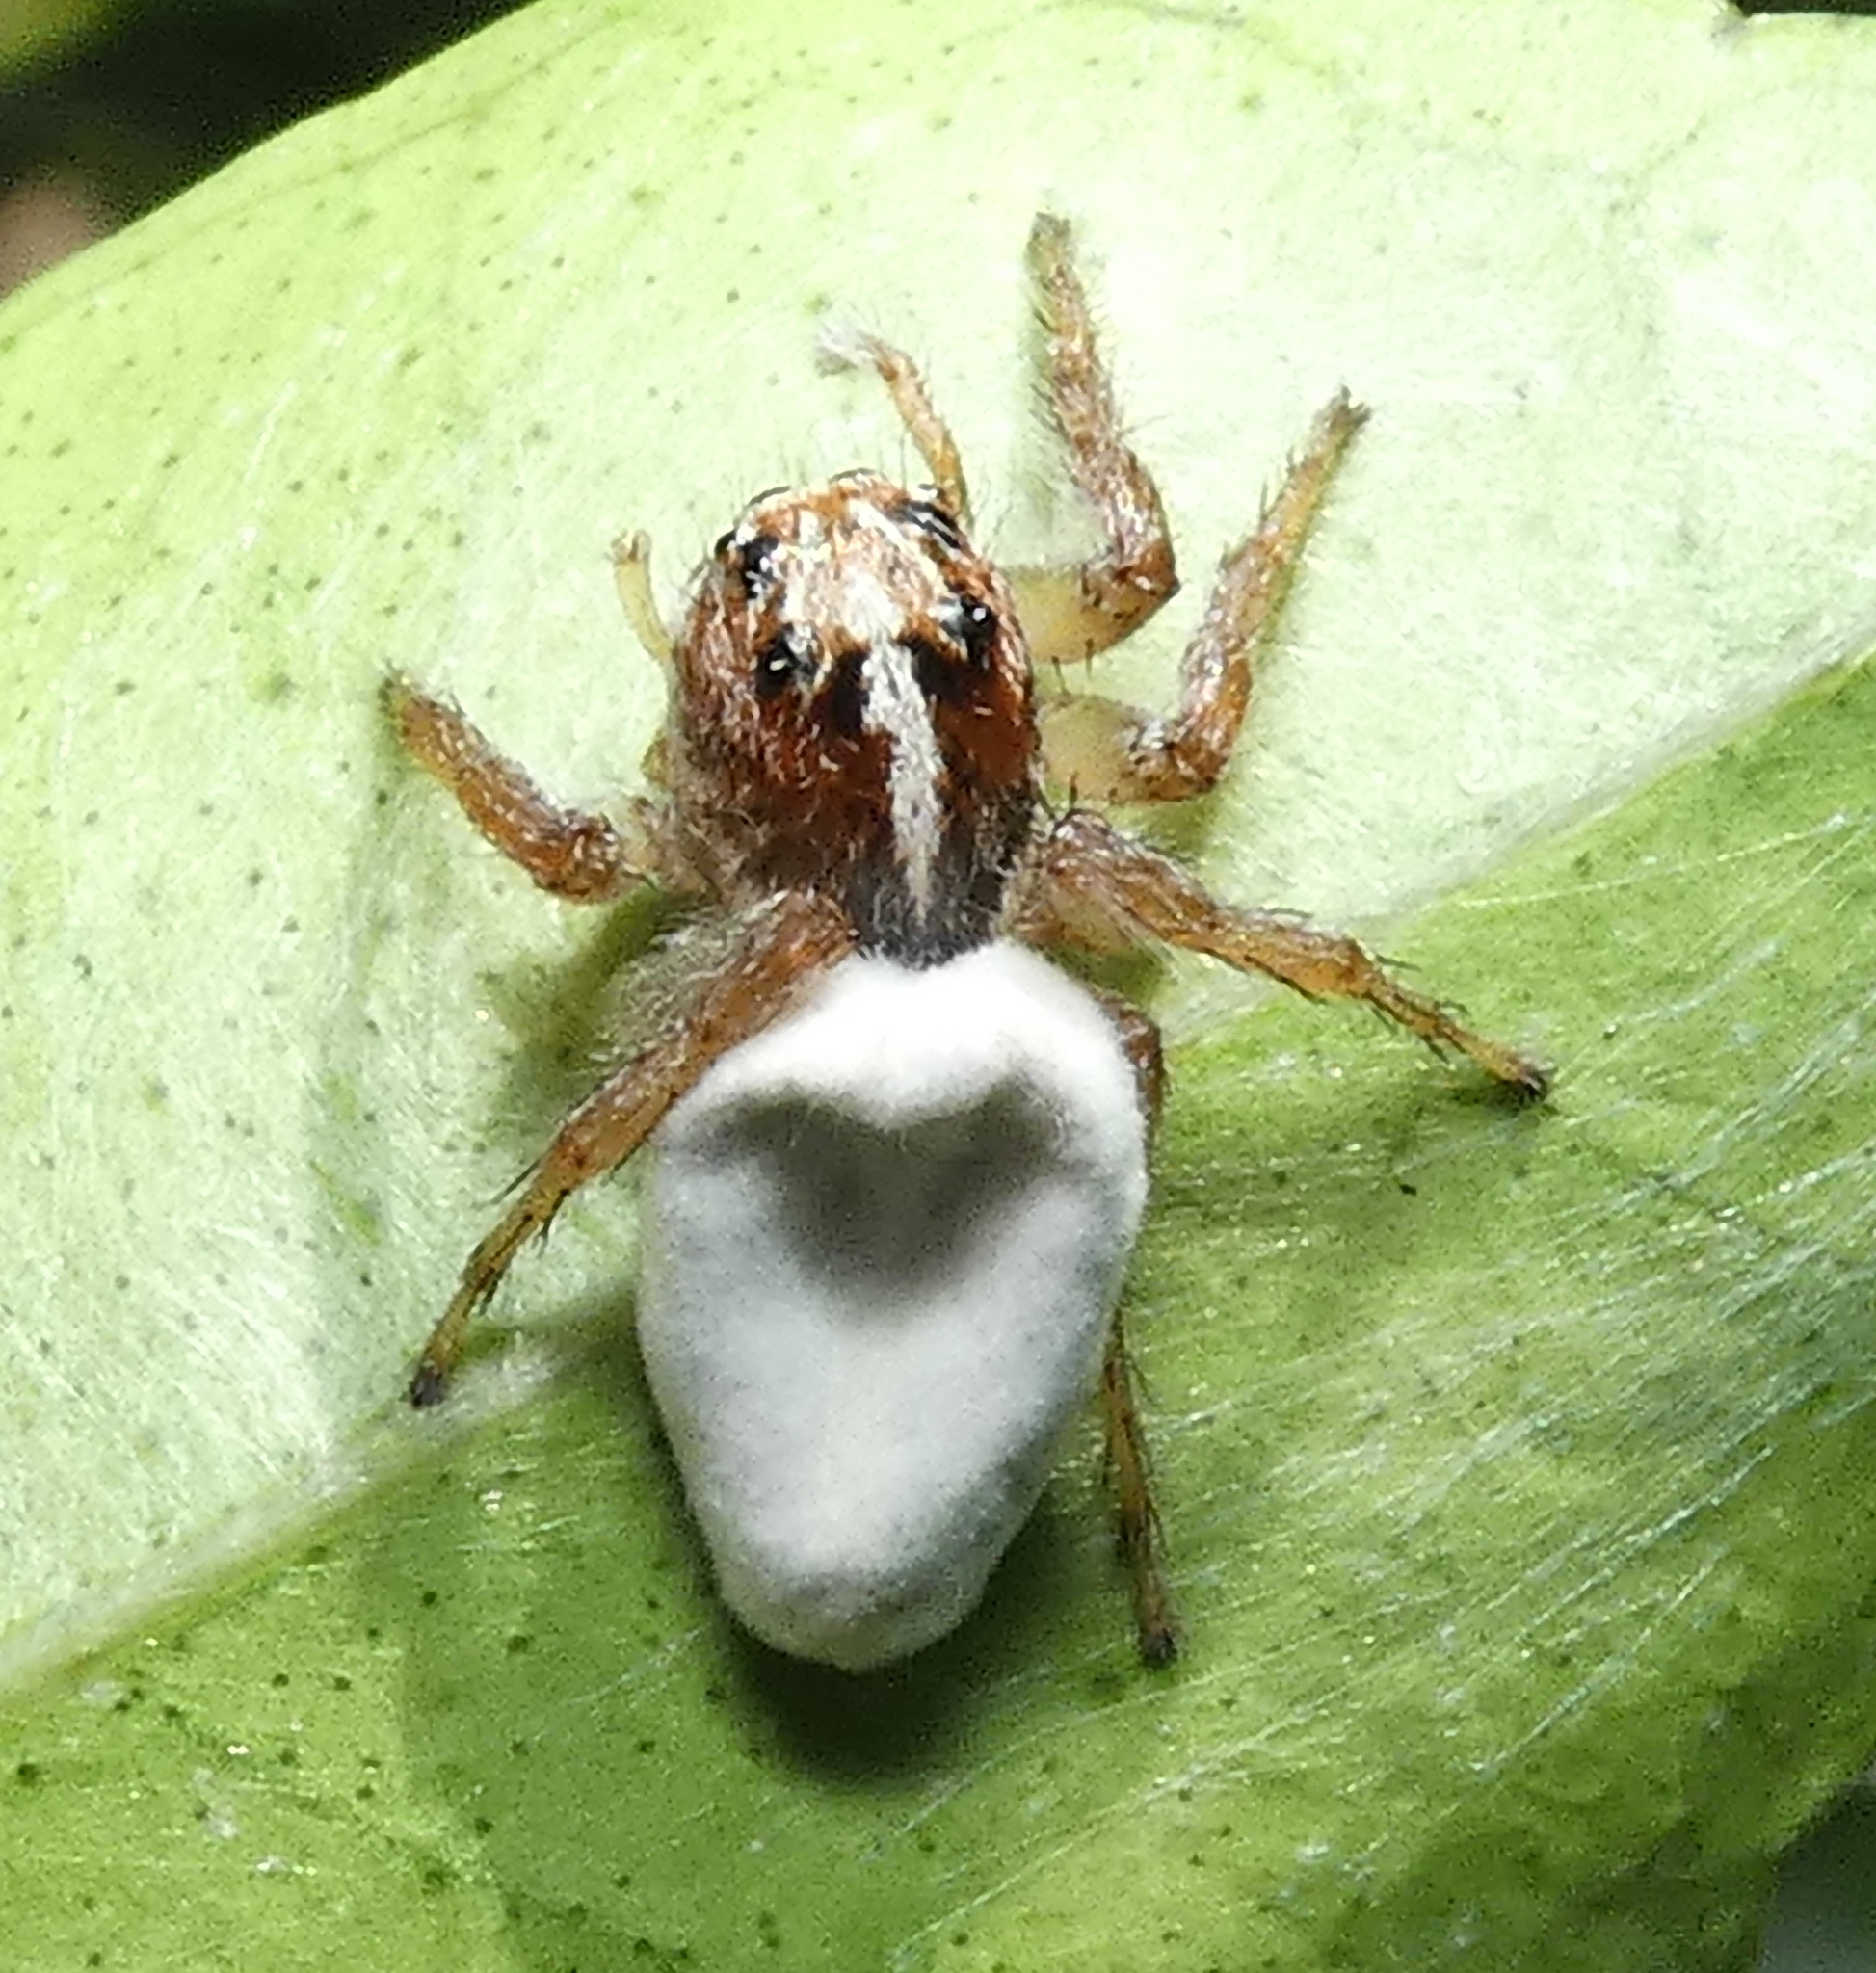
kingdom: Fungi
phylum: Ascomycota
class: Sordariomycetes
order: Hypocreales
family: Ophiocordycipitaceae
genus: Purpureocillium
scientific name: Purpureocillium atypicola
